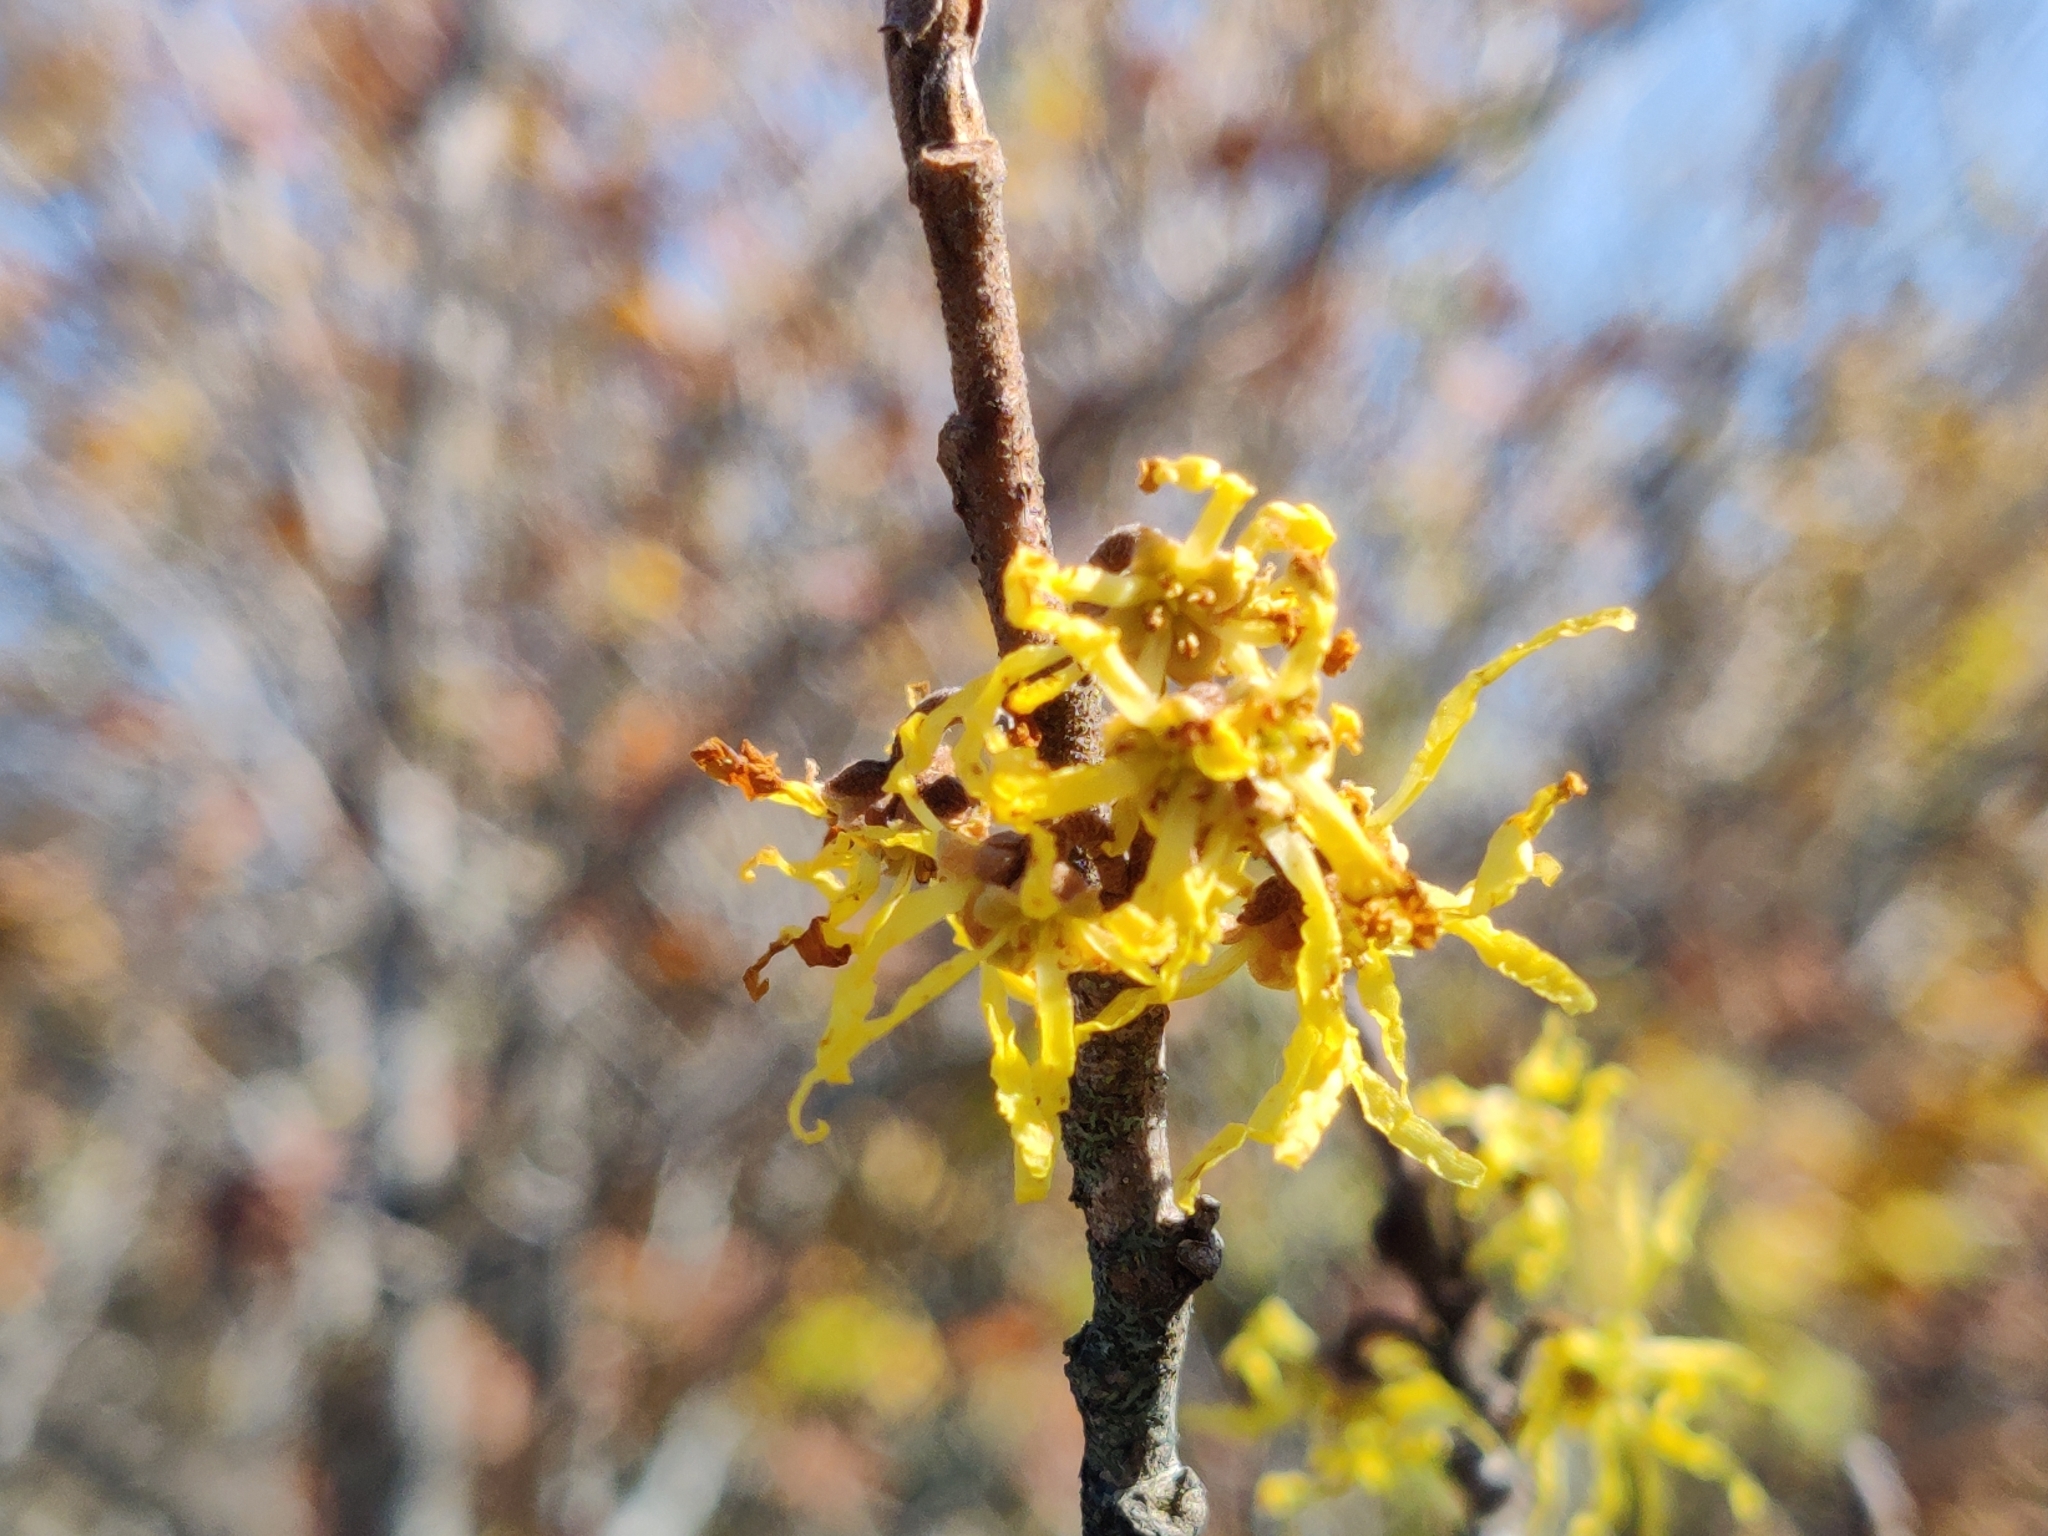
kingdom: Plantae
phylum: Tracheophyta
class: Magnoliopsida
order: Saxifragales
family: Hamamelidaceae
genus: Hamamelis
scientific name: Hamamelis virginiana
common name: Witch-hazel
